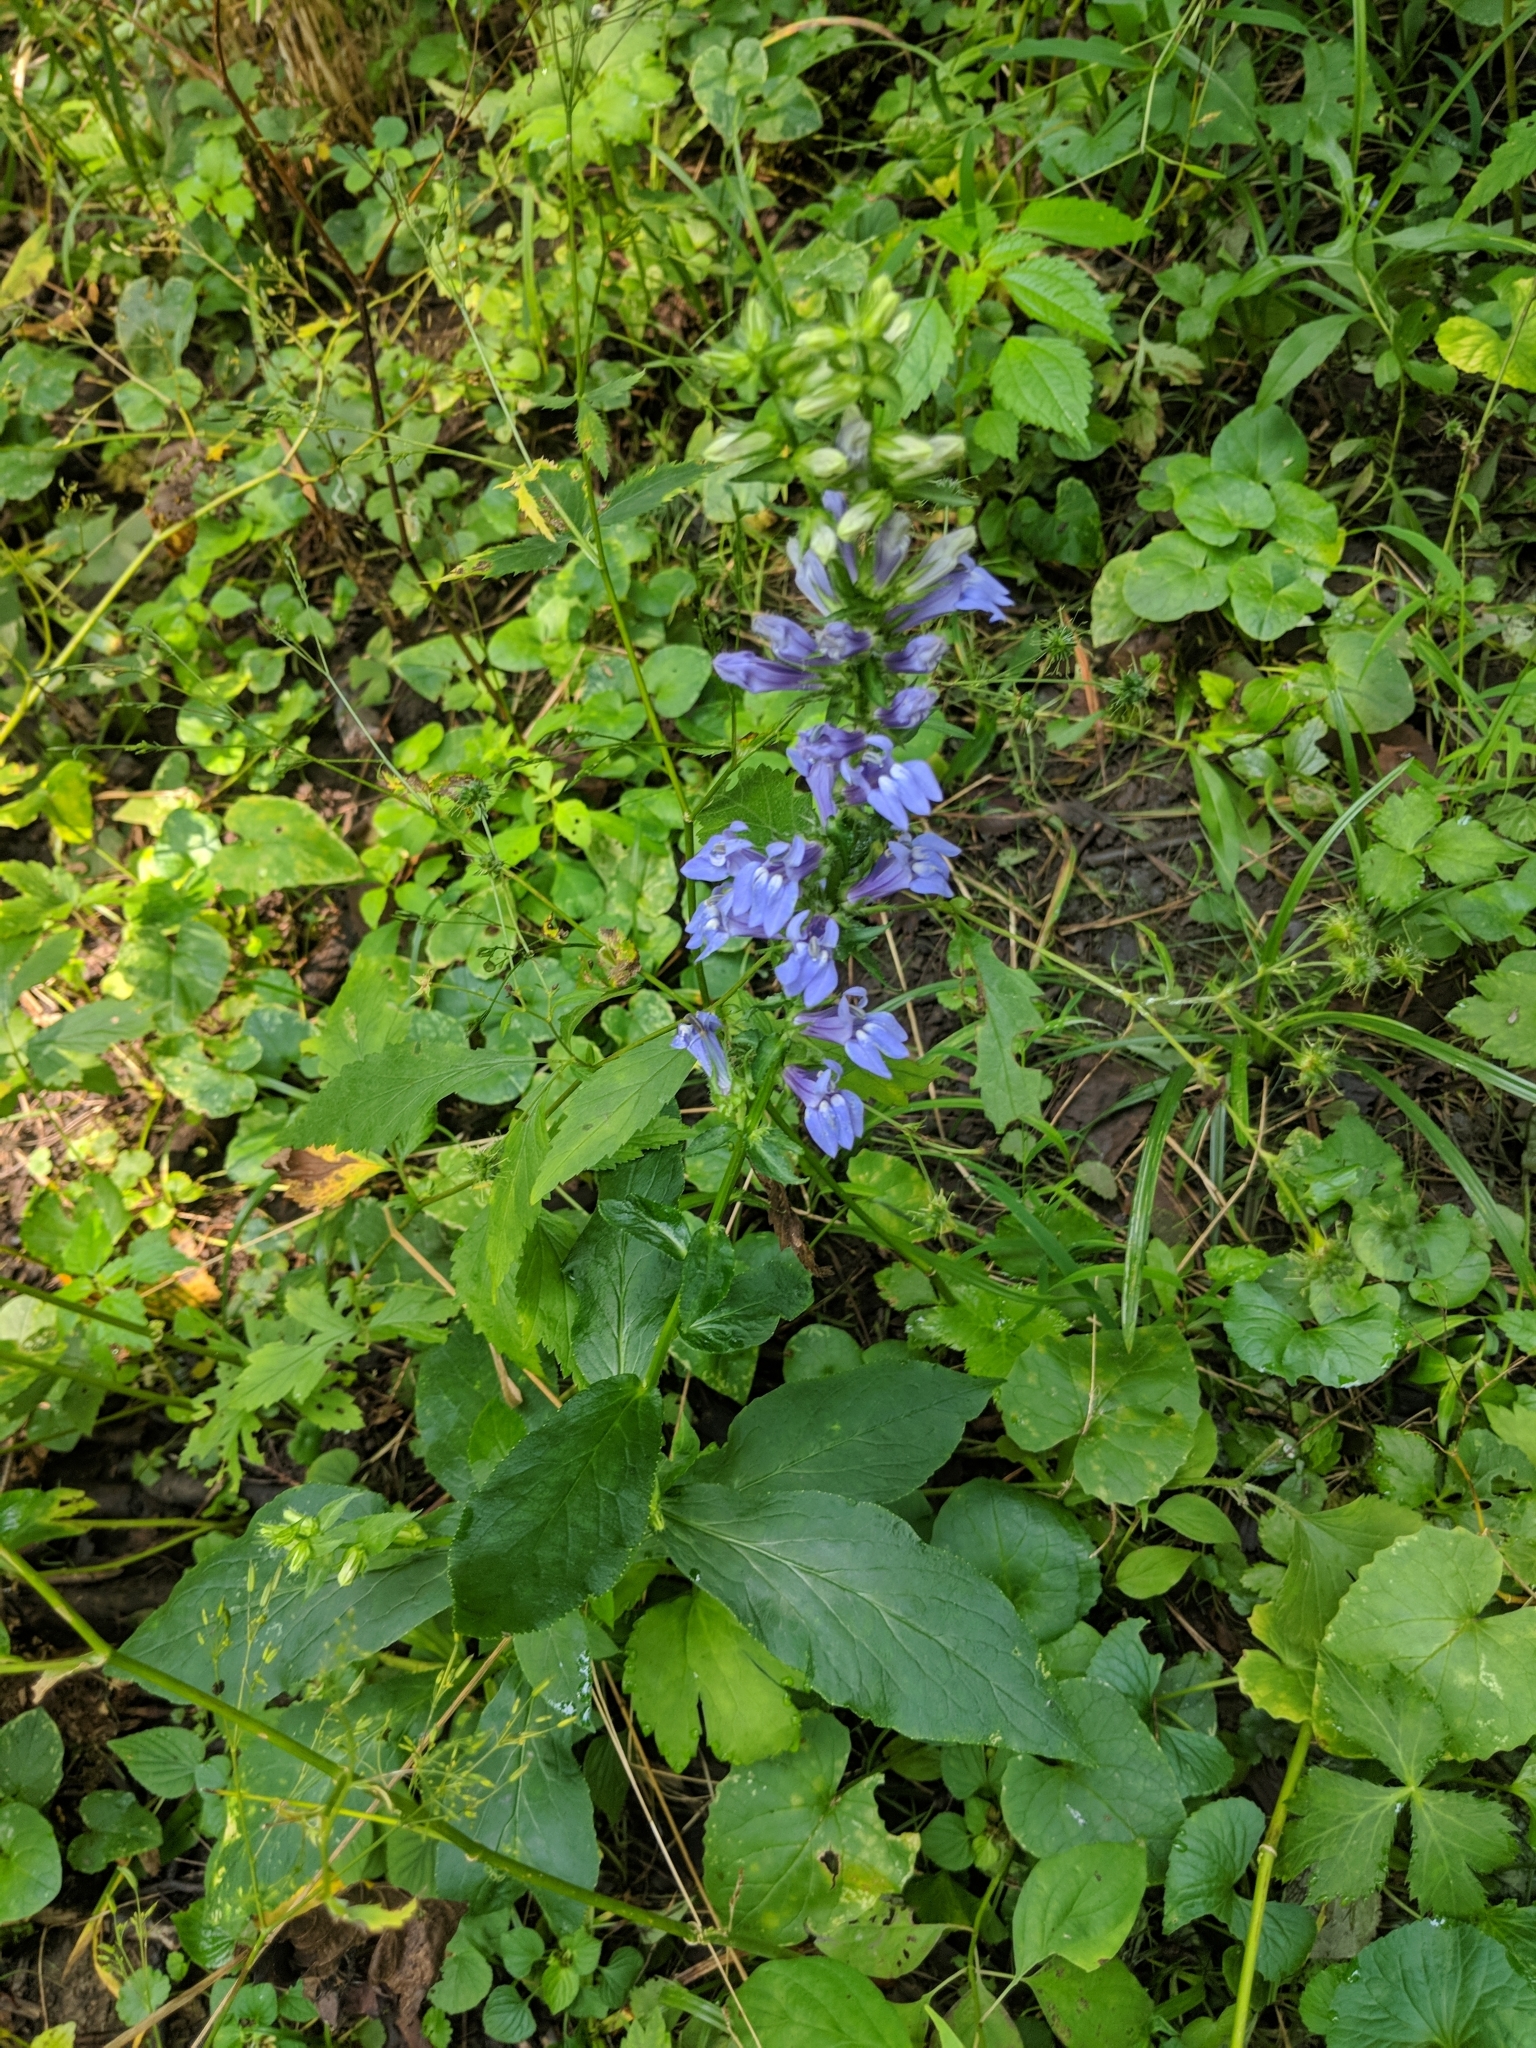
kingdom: Plantae
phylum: Tracheophyta
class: Magnoliopsida
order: Asterales
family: Campanulaceae
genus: Lobelia
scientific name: Lobelia siphilitica
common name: Great lobelia
